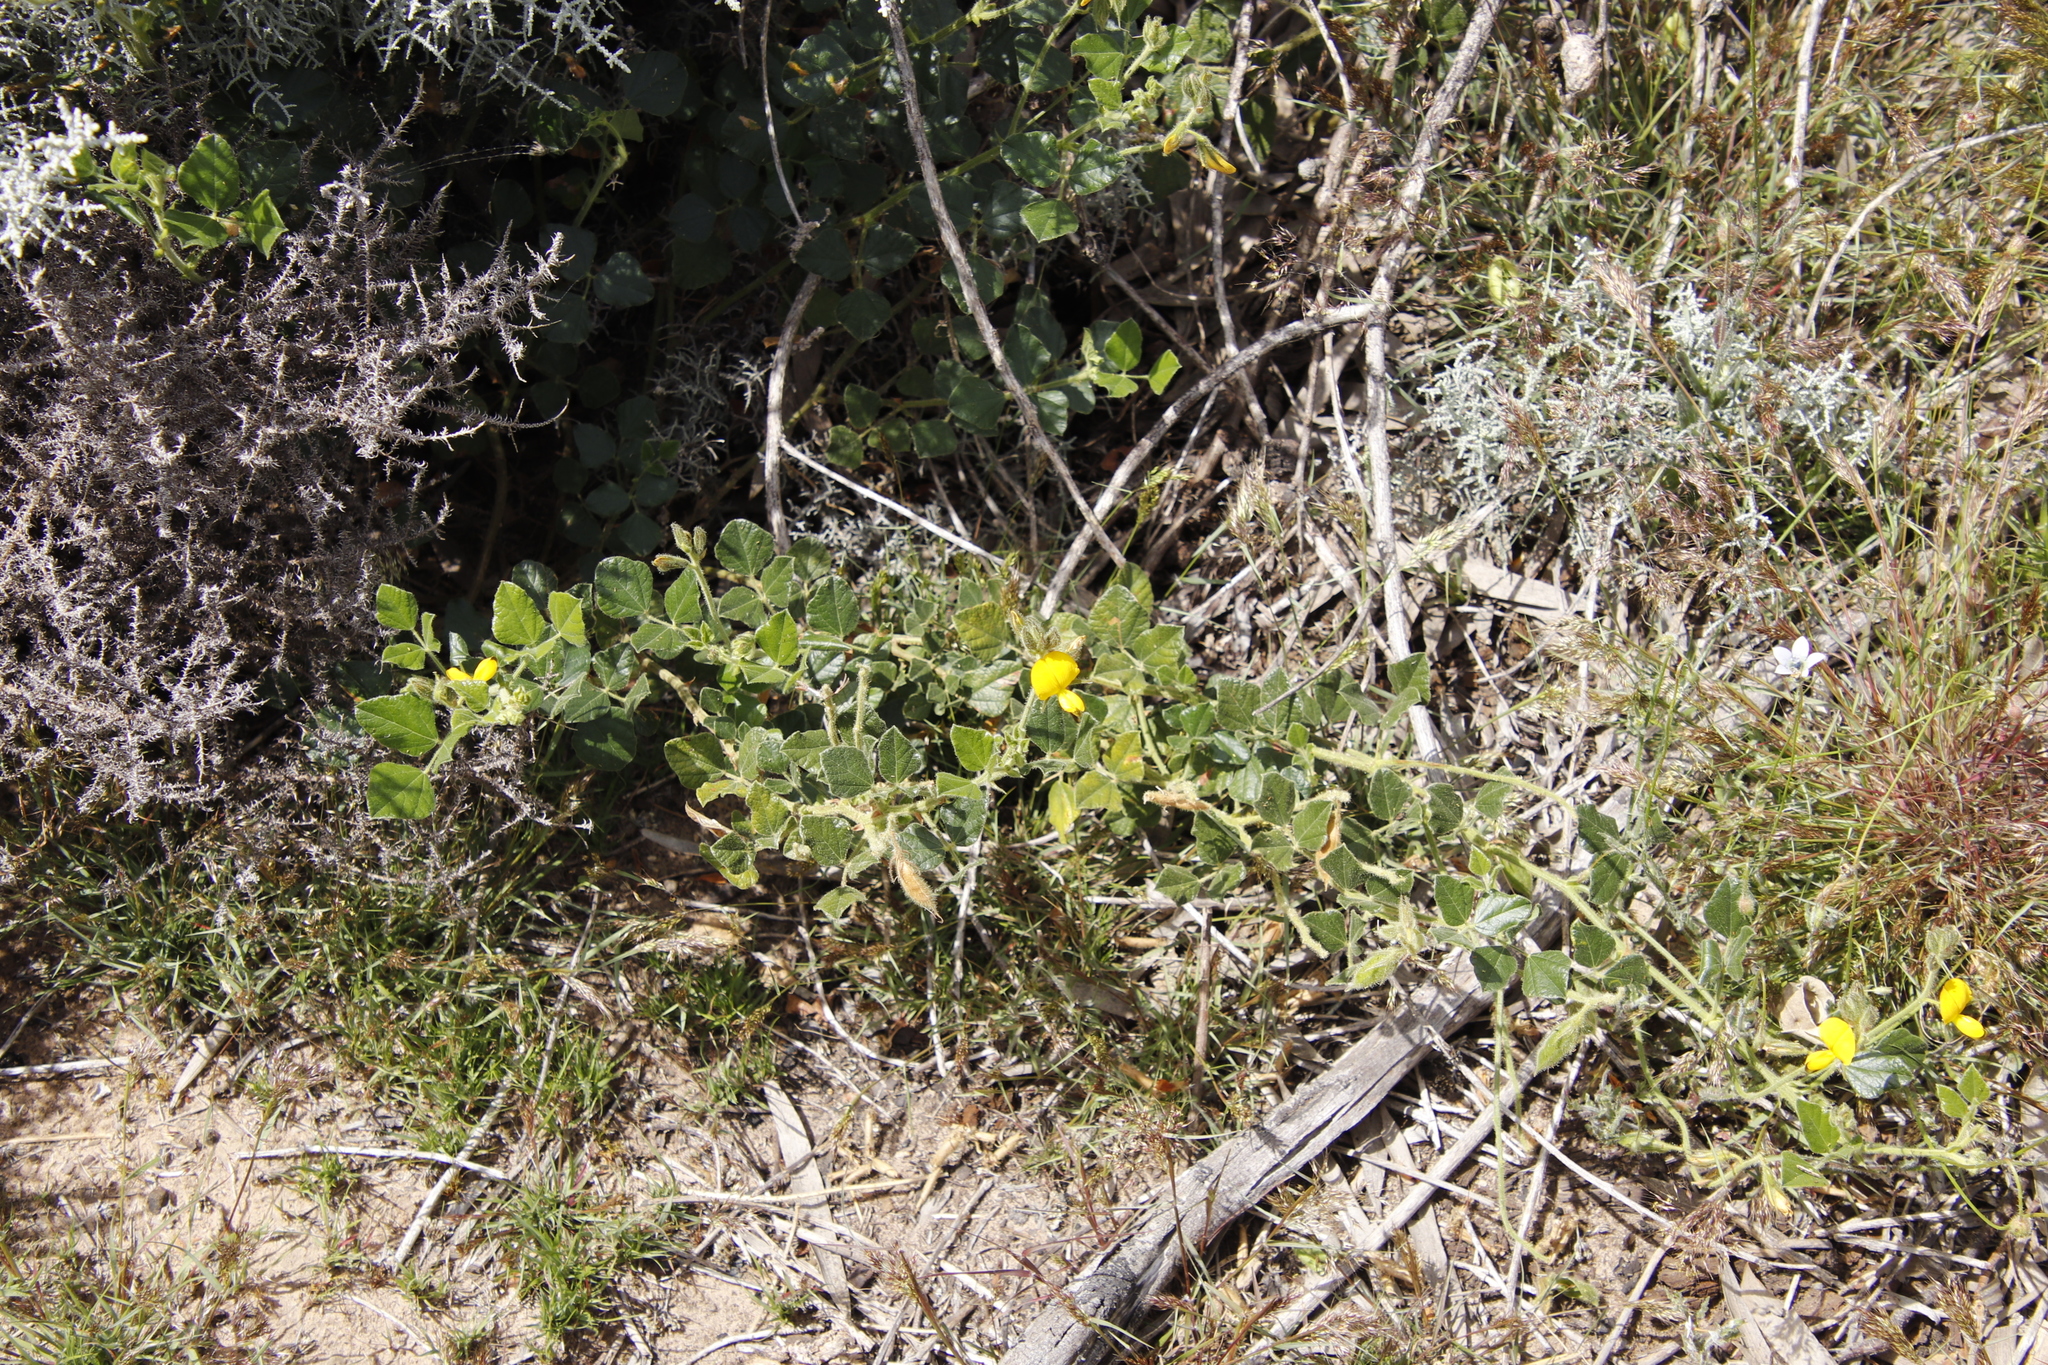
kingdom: Plantae
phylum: Tracheophyta
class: Magnoliopsida
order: Fabales
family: Fabaceae
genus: Bolusafra
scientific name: Bolusafra bituminosa
